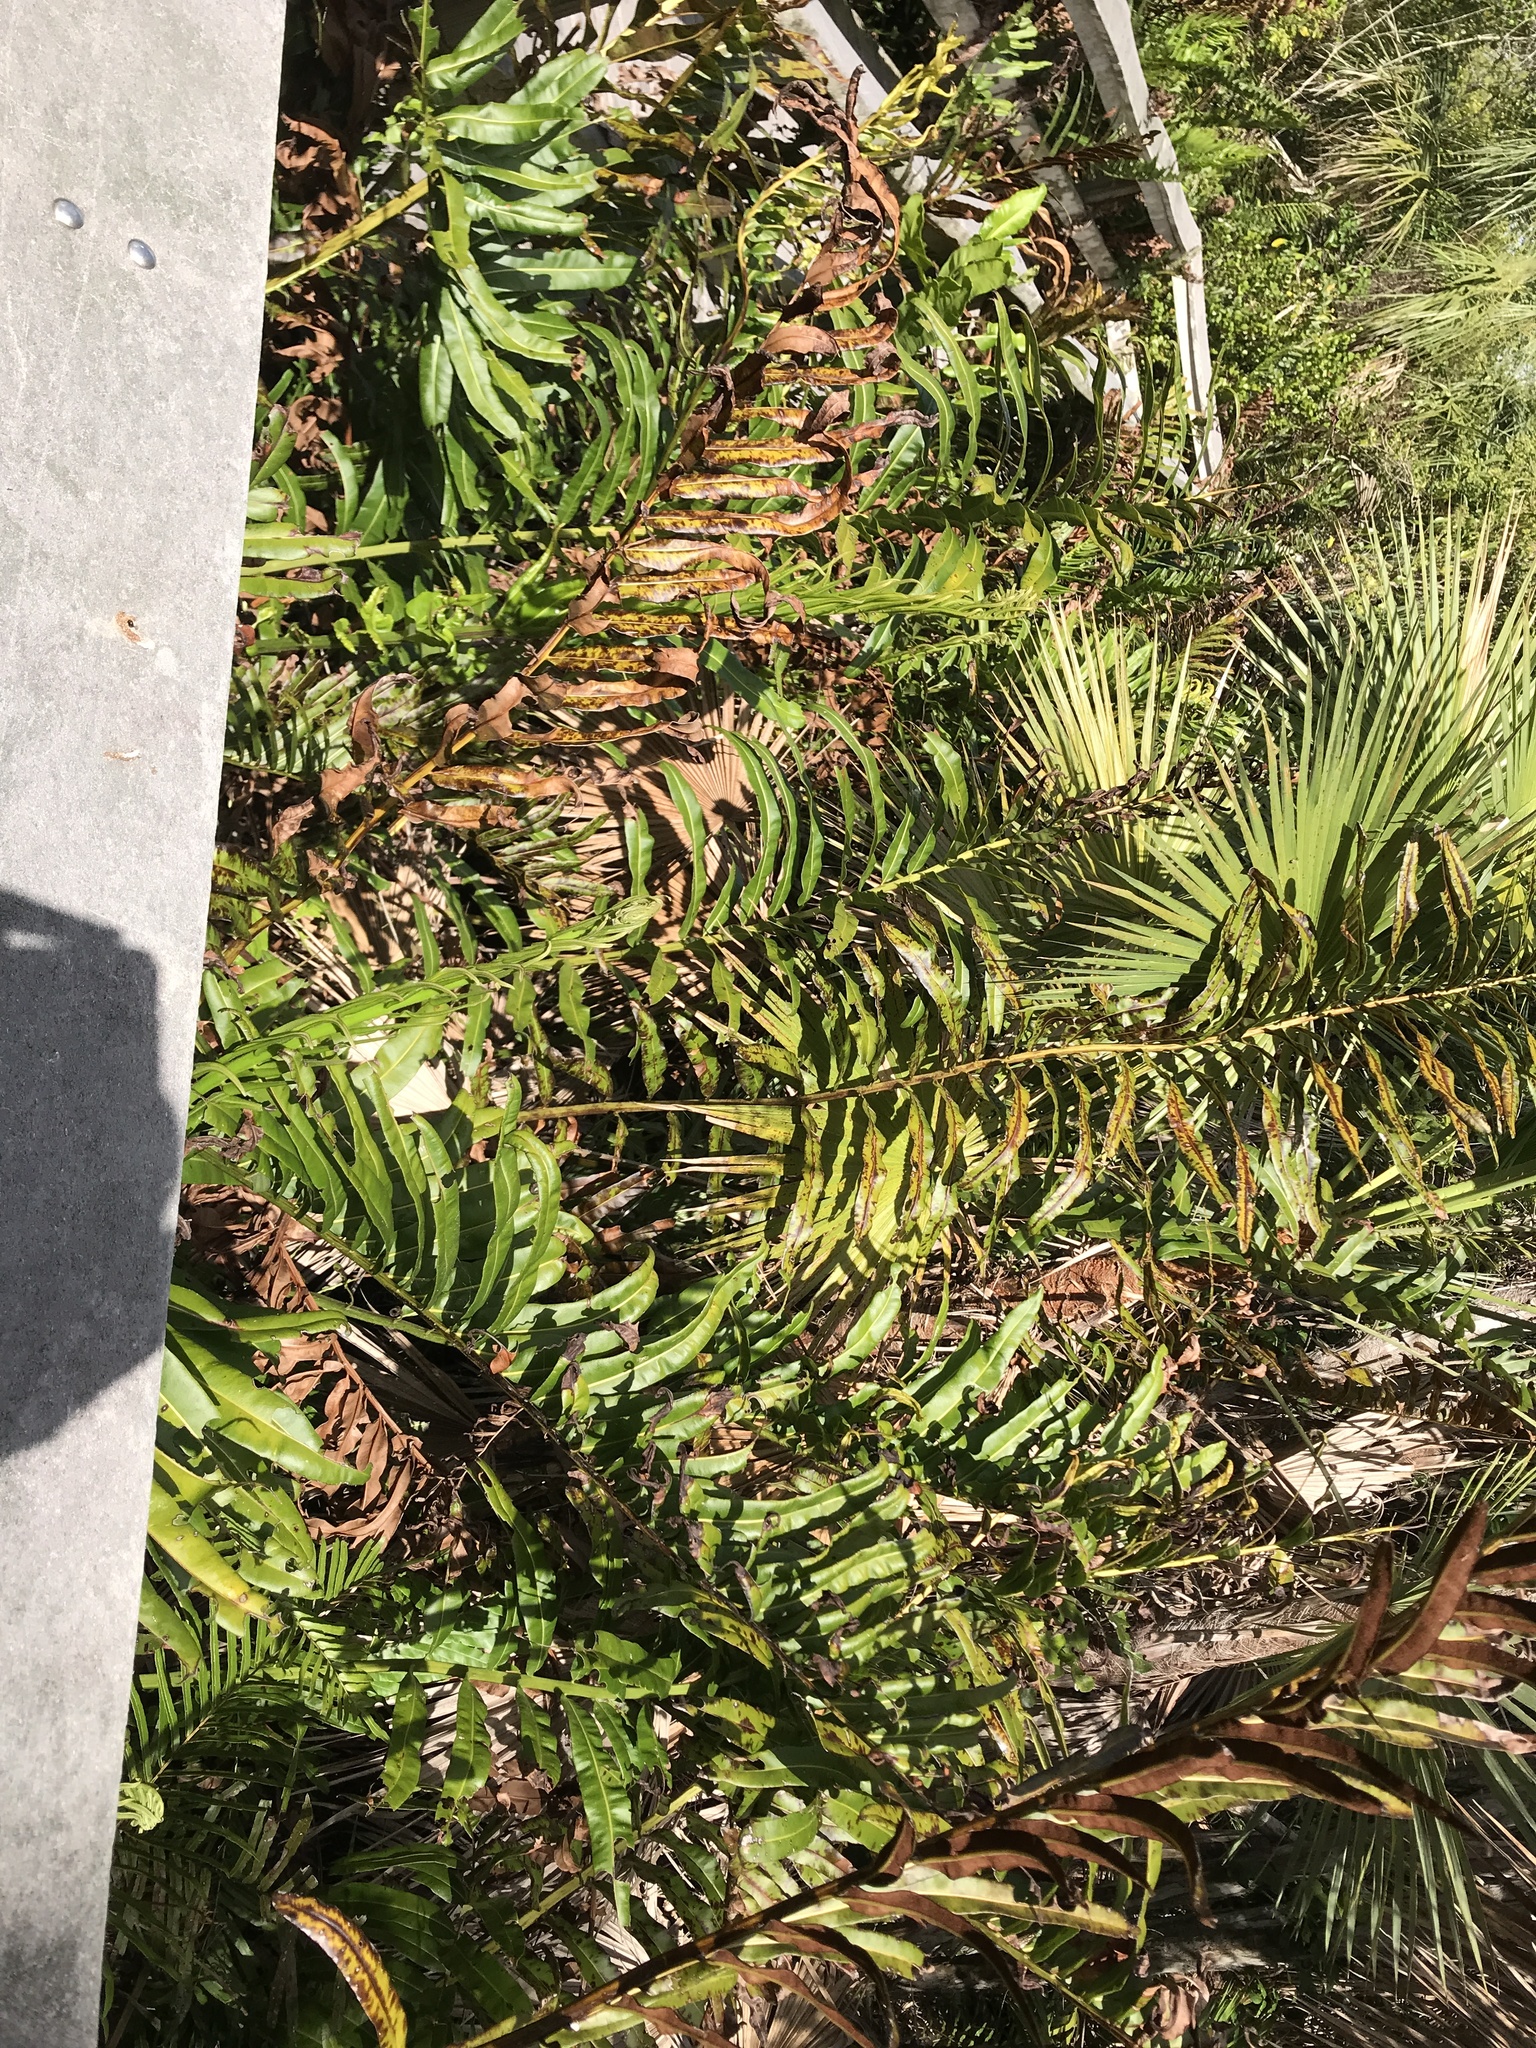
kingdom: Plantae
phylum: Tracheophyta
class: Polypodiopsida
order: Polypodiales
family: Pteridaceae
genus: Acrostichum
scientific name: Acrostichum danaeifolium
